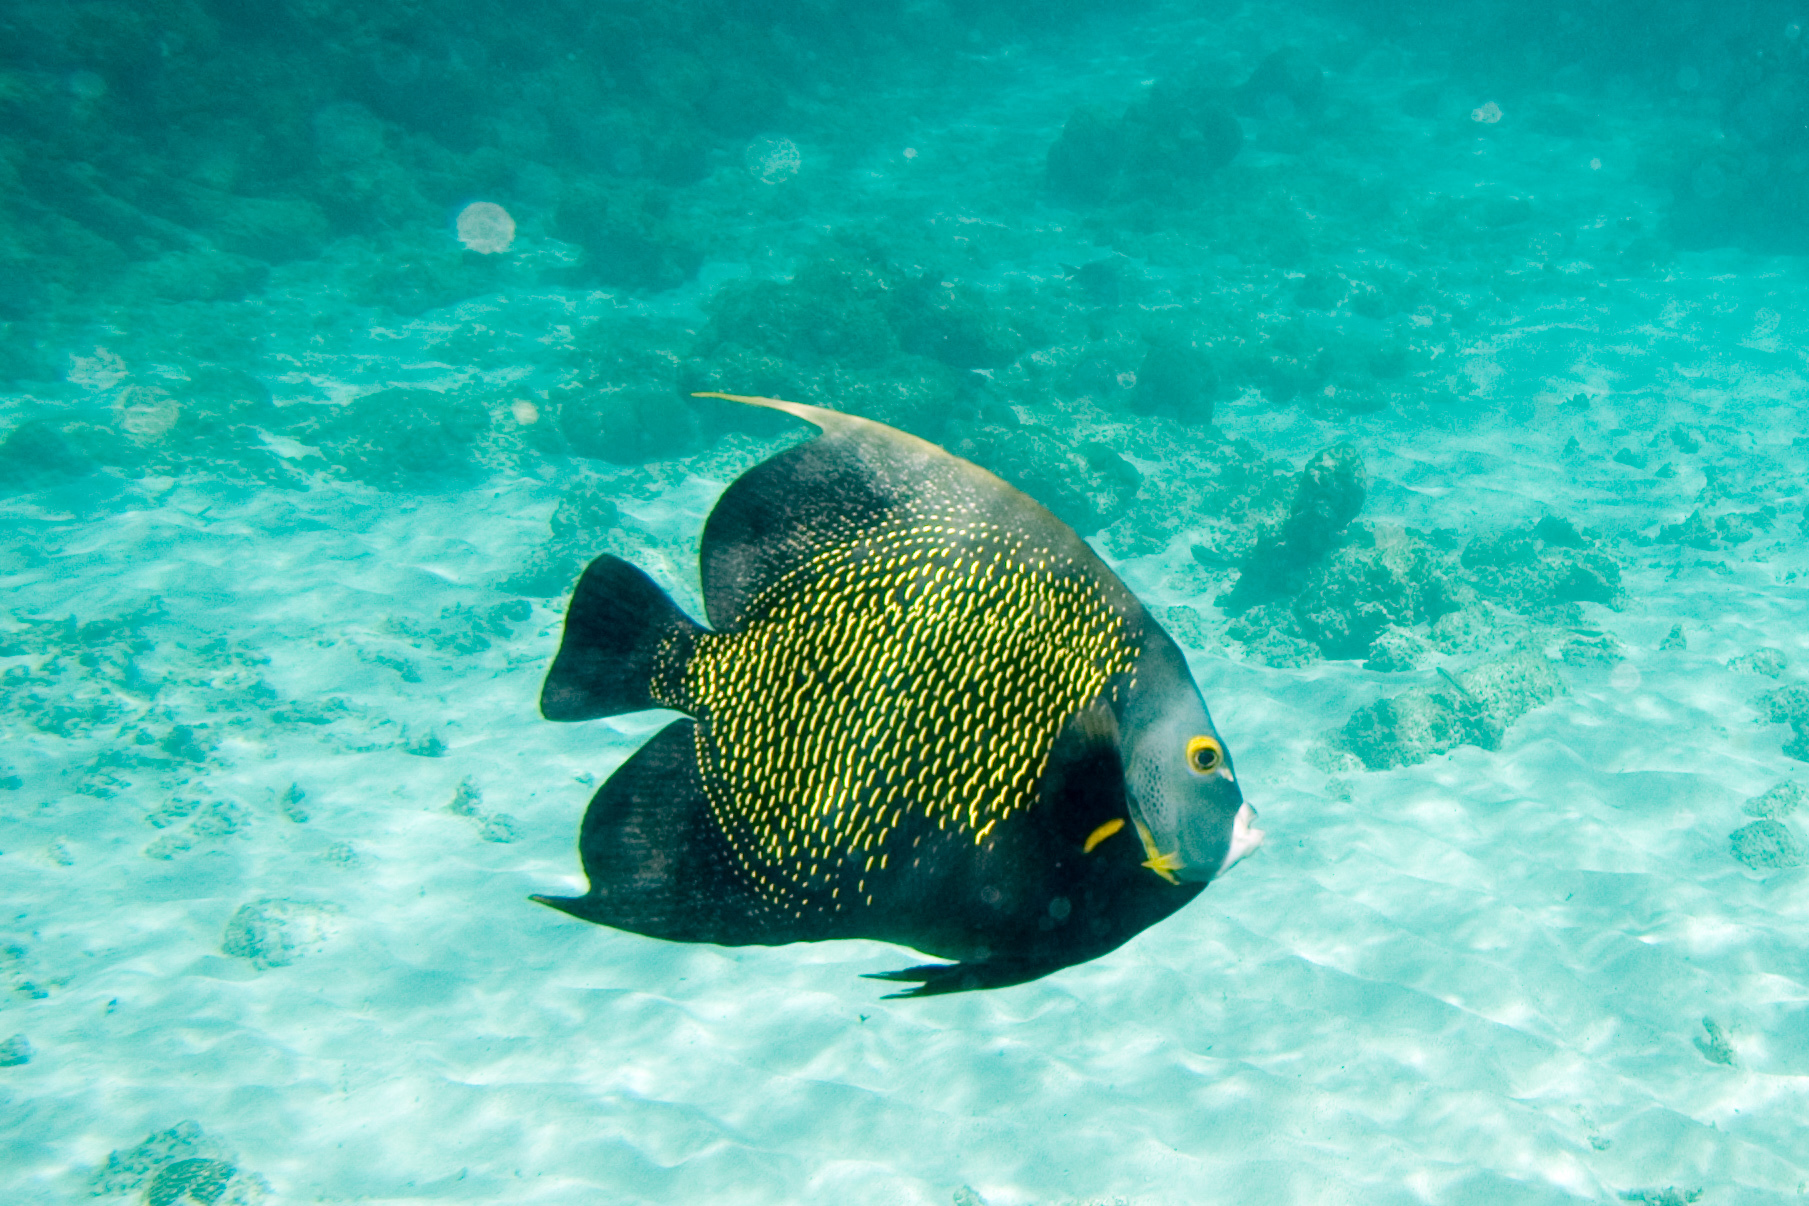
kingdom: Animalia
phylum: Chordata
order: Perciformes
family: Pomacanthidae
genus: Pomacanthus
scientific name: Pomacanthus paru
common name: French angelfish
